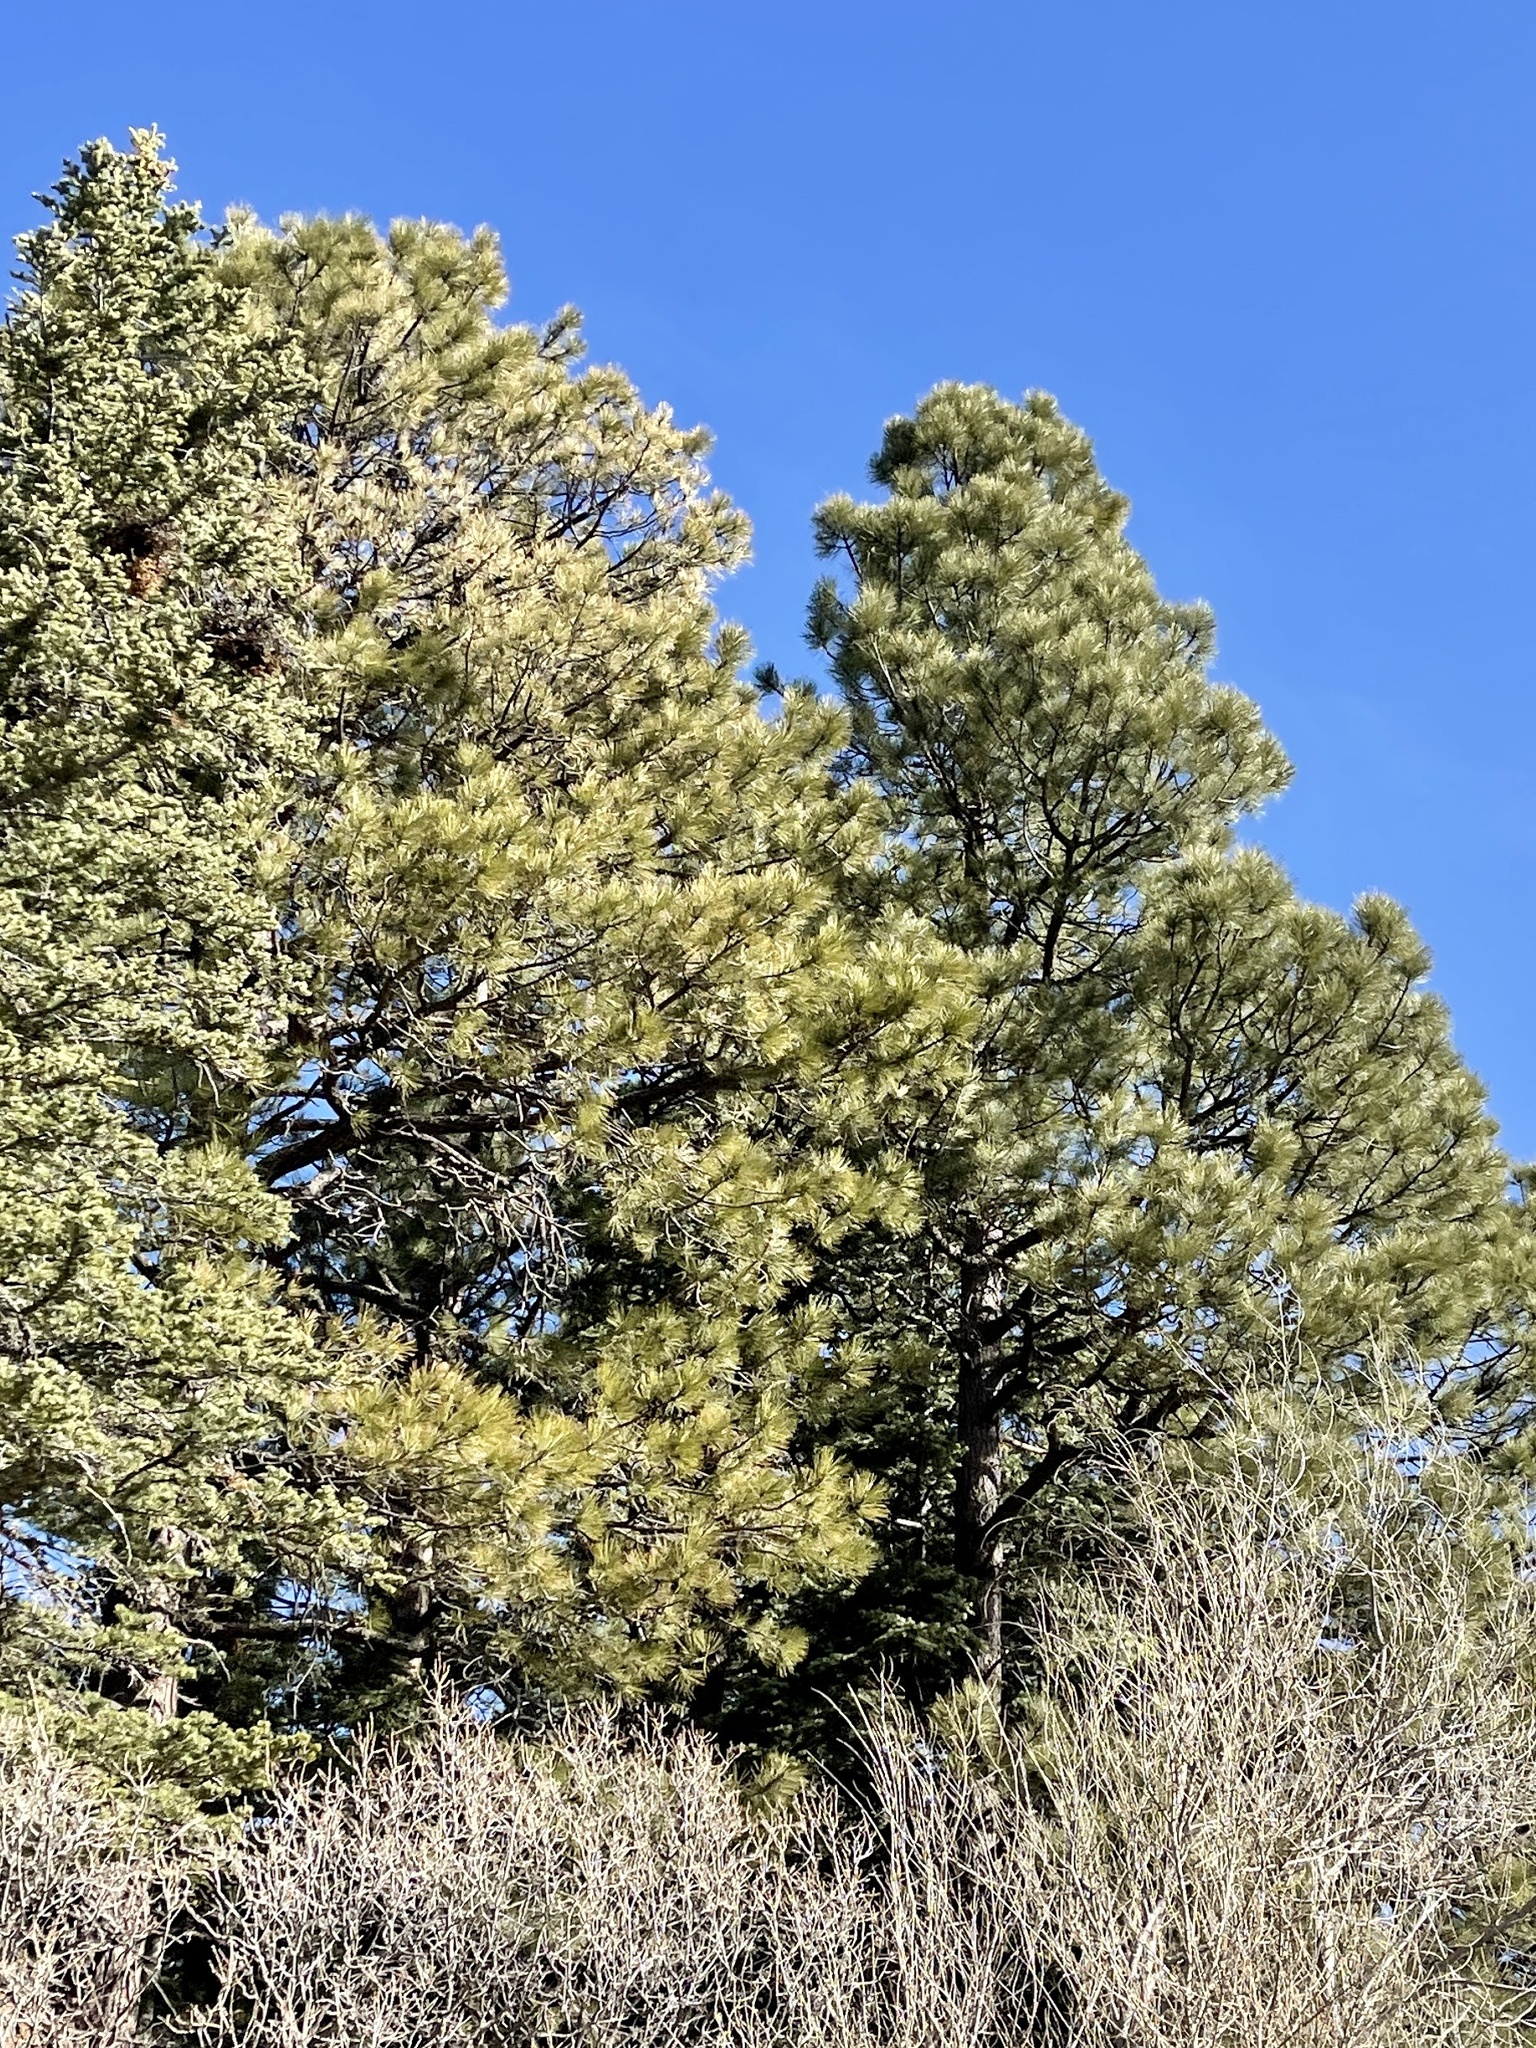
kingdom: Plantae
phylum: Tracheophyta
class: Pinopsida
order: Pinales
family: Pinaceae
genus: Pinus
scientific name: Pinus ponderosa
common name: Western yellow-pine
